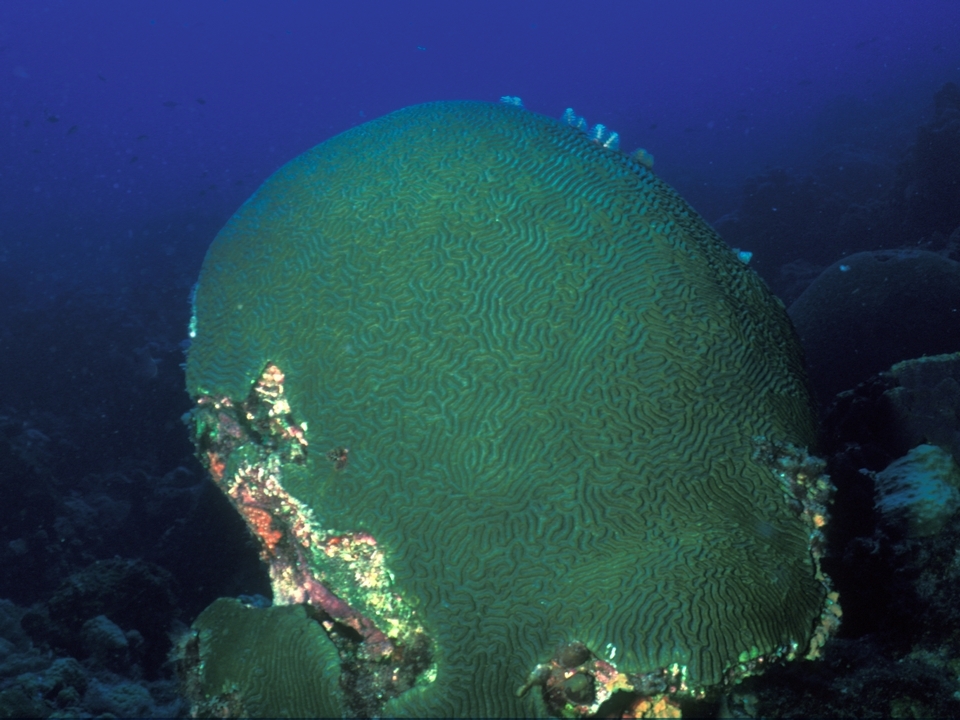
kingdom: Animalia
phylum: Cnidaria
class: Anthozoa
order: Scleractinia
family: Faviidae
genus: Pseudodiploria
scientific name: Pseudodiploria strigosa
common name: Symmetrical brain coral
